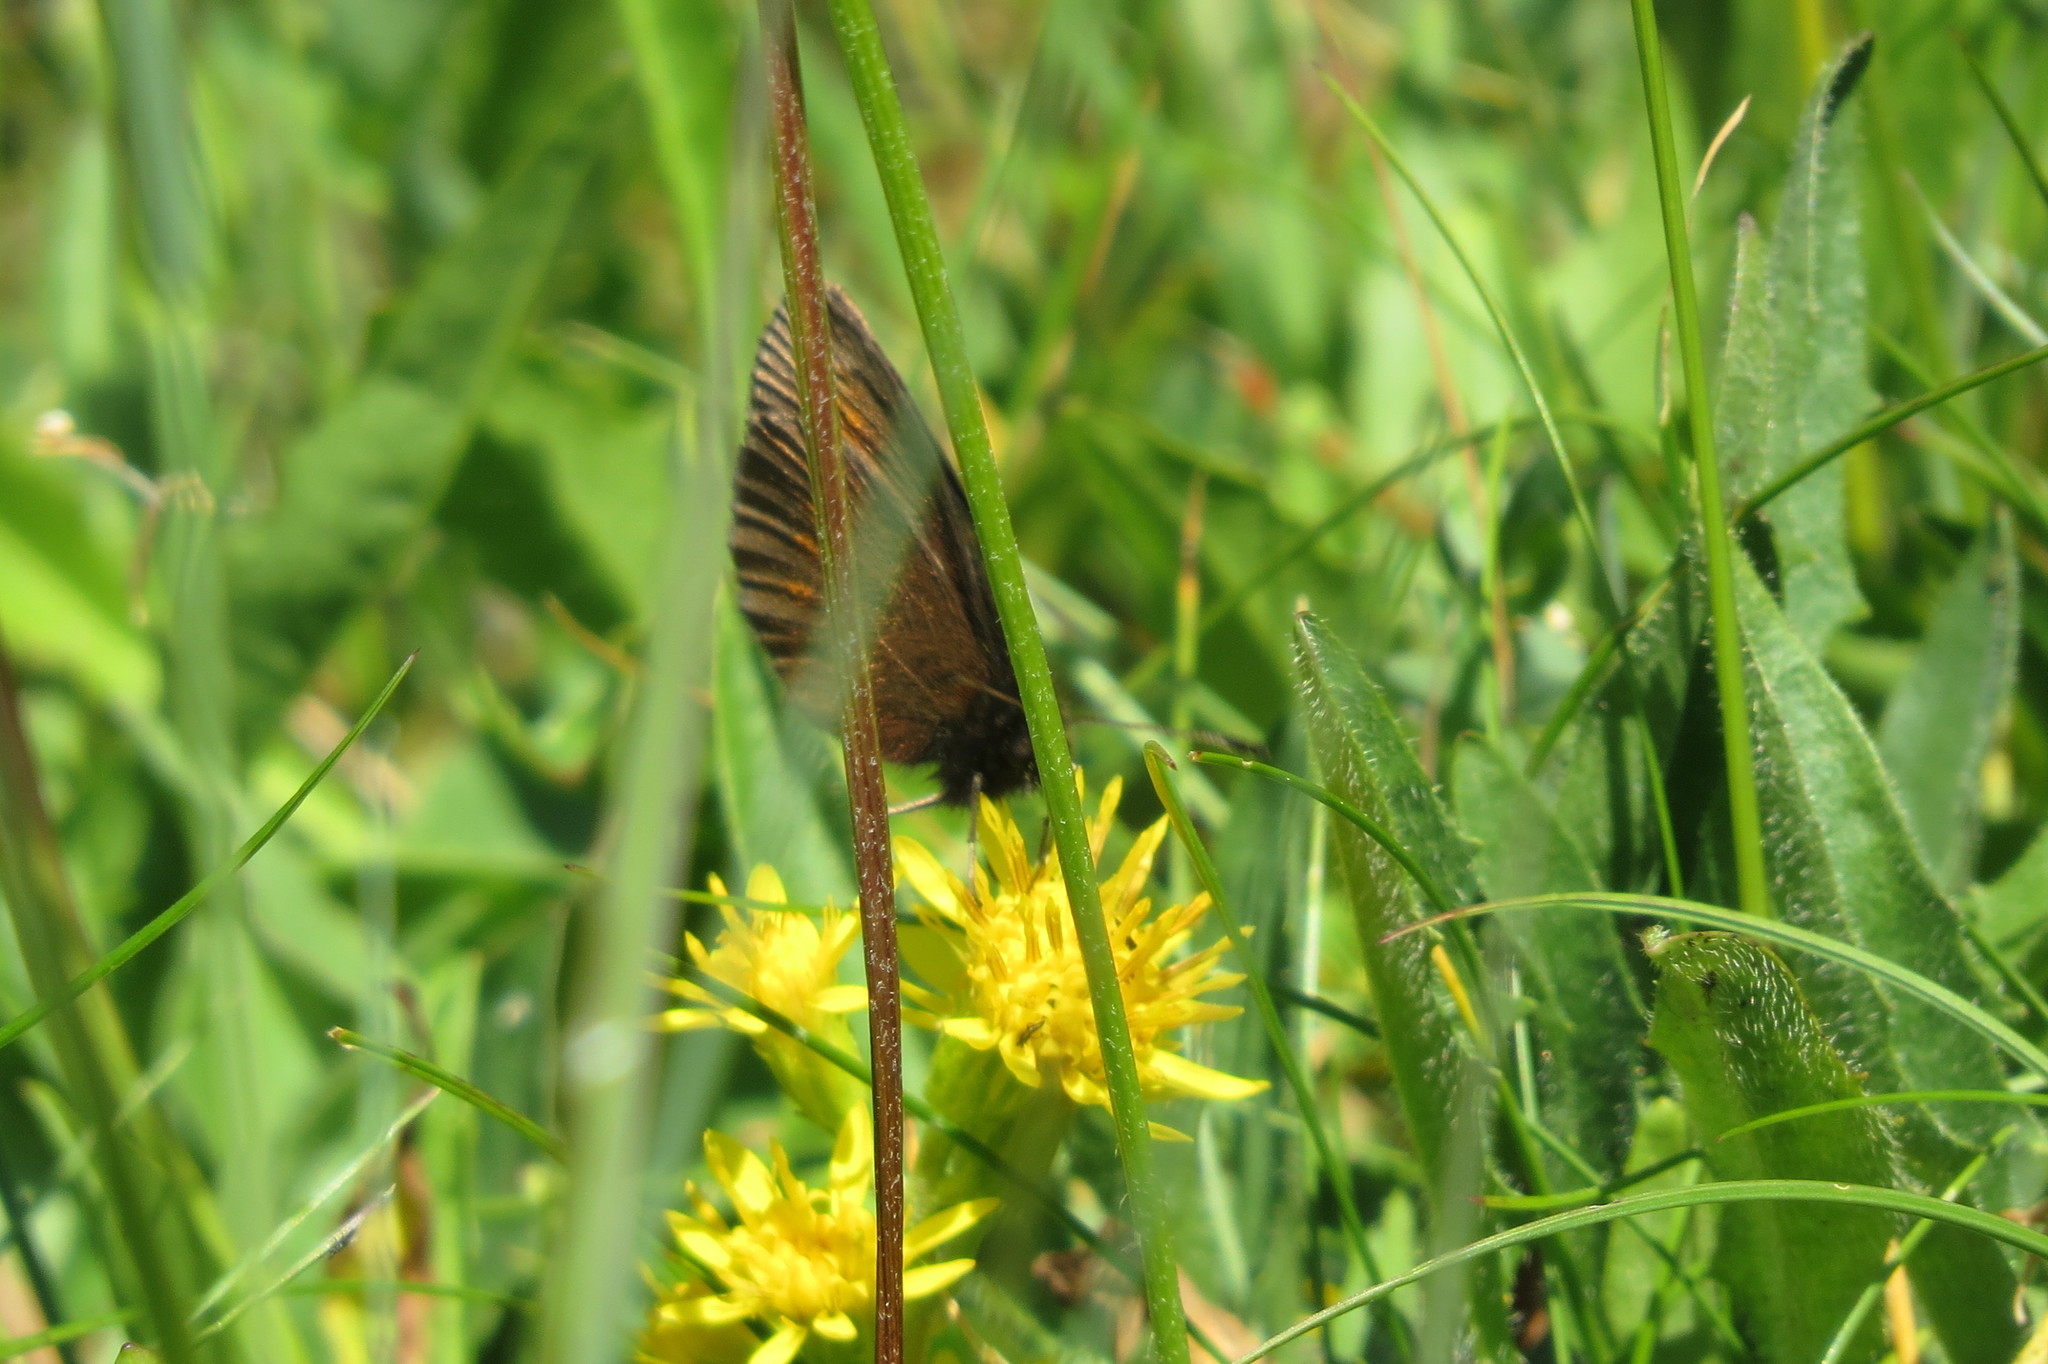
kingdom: Animalia
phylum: Arthropoda
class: Insecta
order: Lepidoptera
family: Nymphalidae
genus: Erebia
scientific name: Erebia melampus
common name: Lesser mountain ringlet
